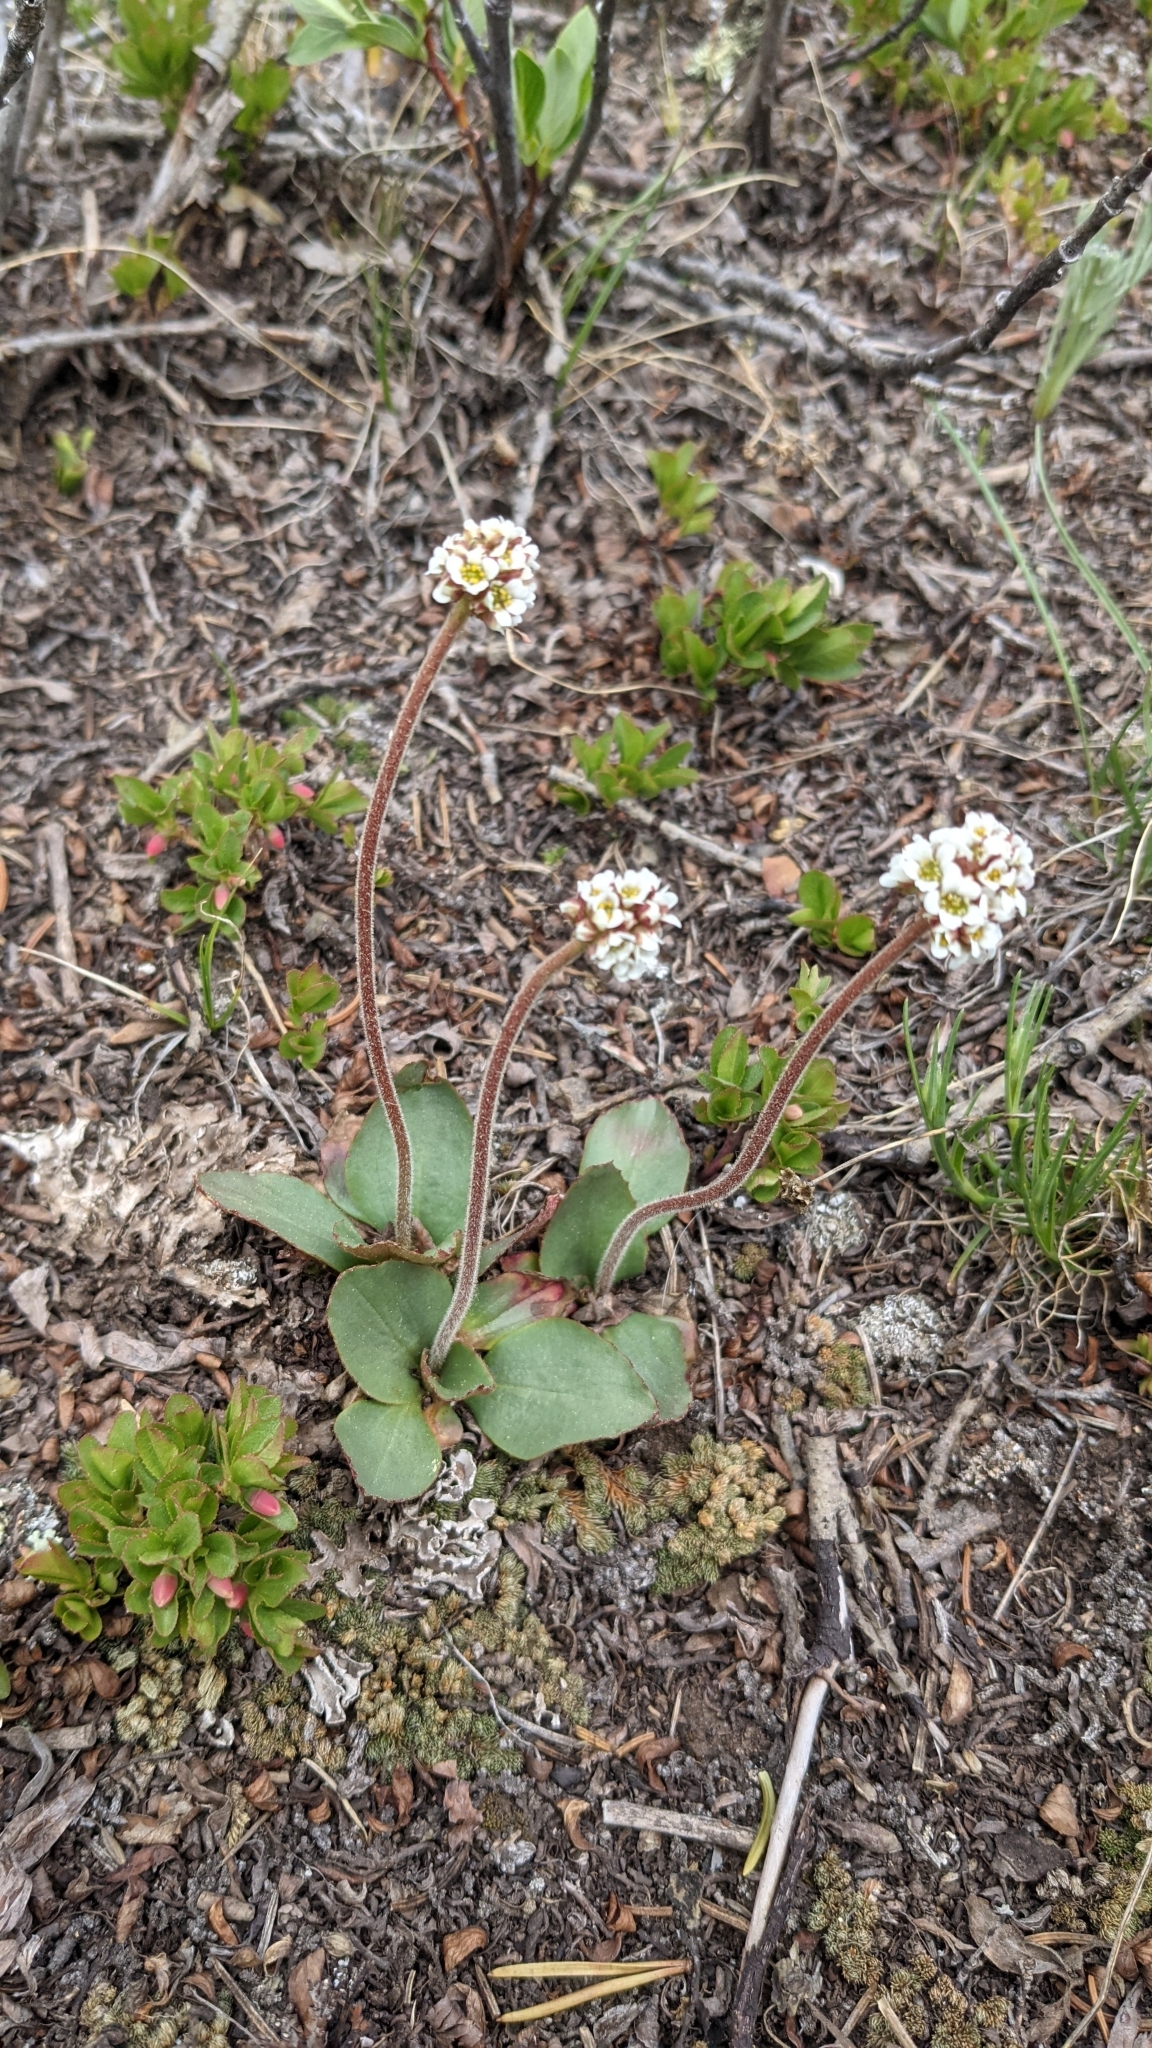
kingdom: Plantae
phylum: Tracheophyta
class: Magnoliopsida
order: Saxifragales
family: Saxifragaceae
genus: Micranthes
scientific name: Micranthes rhomboidea
